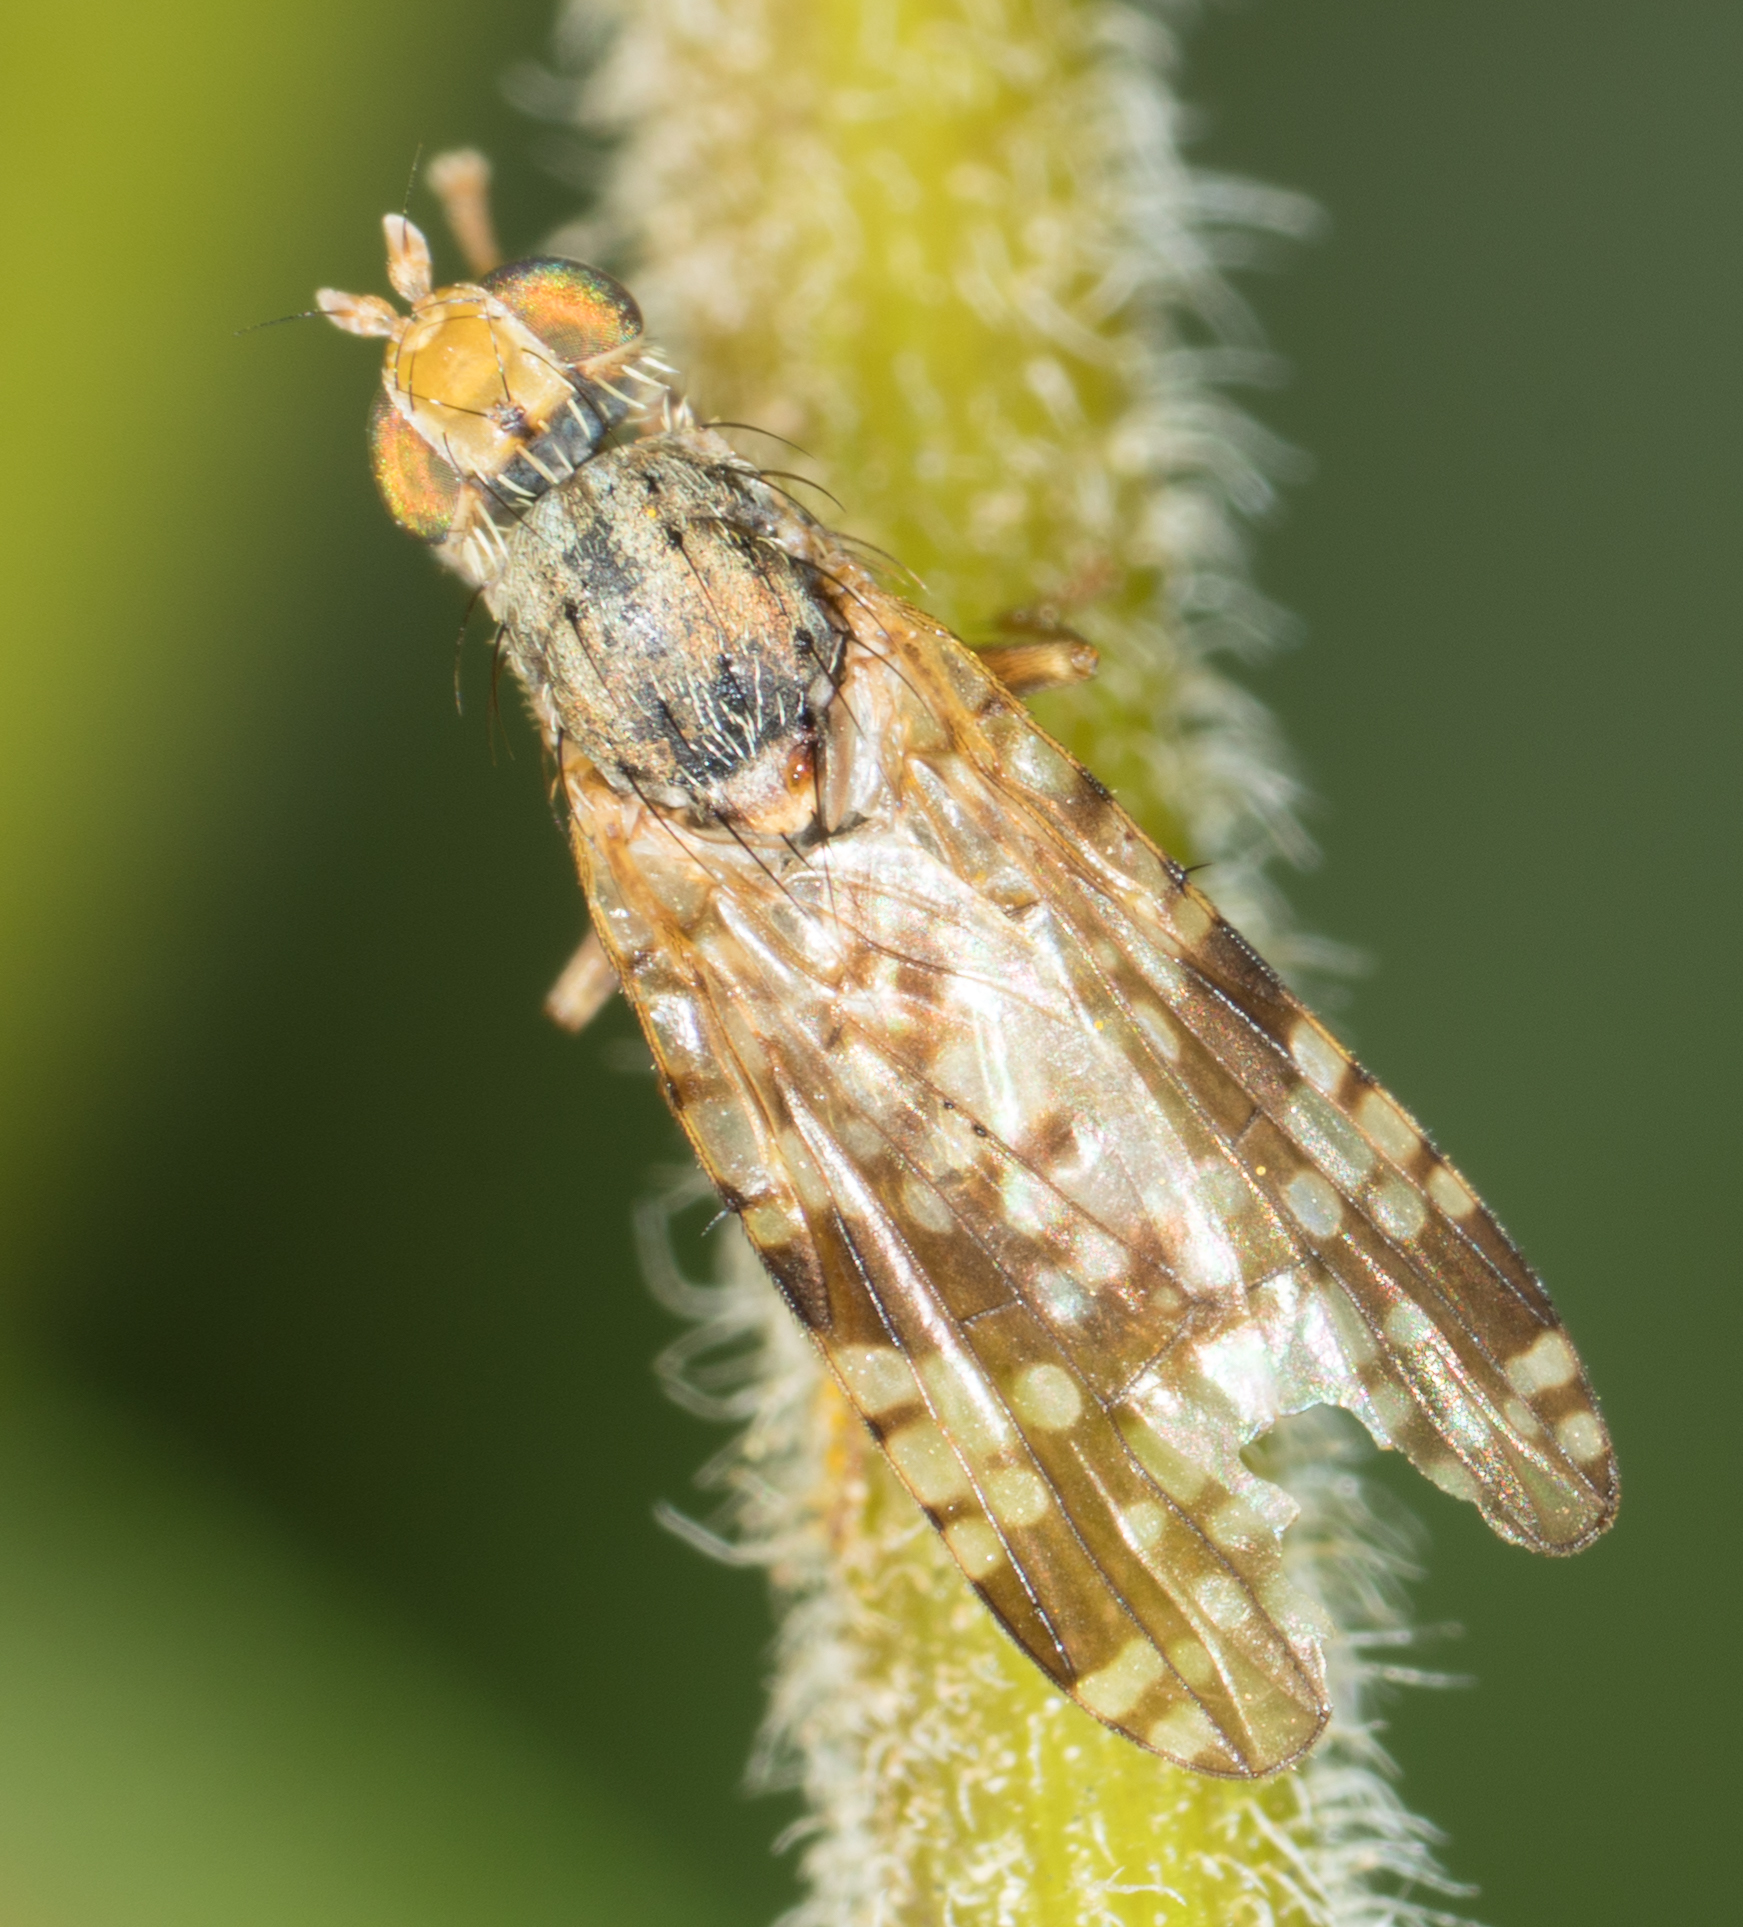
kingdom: Animalia
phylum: Arthropoda
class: Insecta
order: Diptera
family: Tephritidae
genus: Neotephritis
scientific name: Neotephritis finalis
